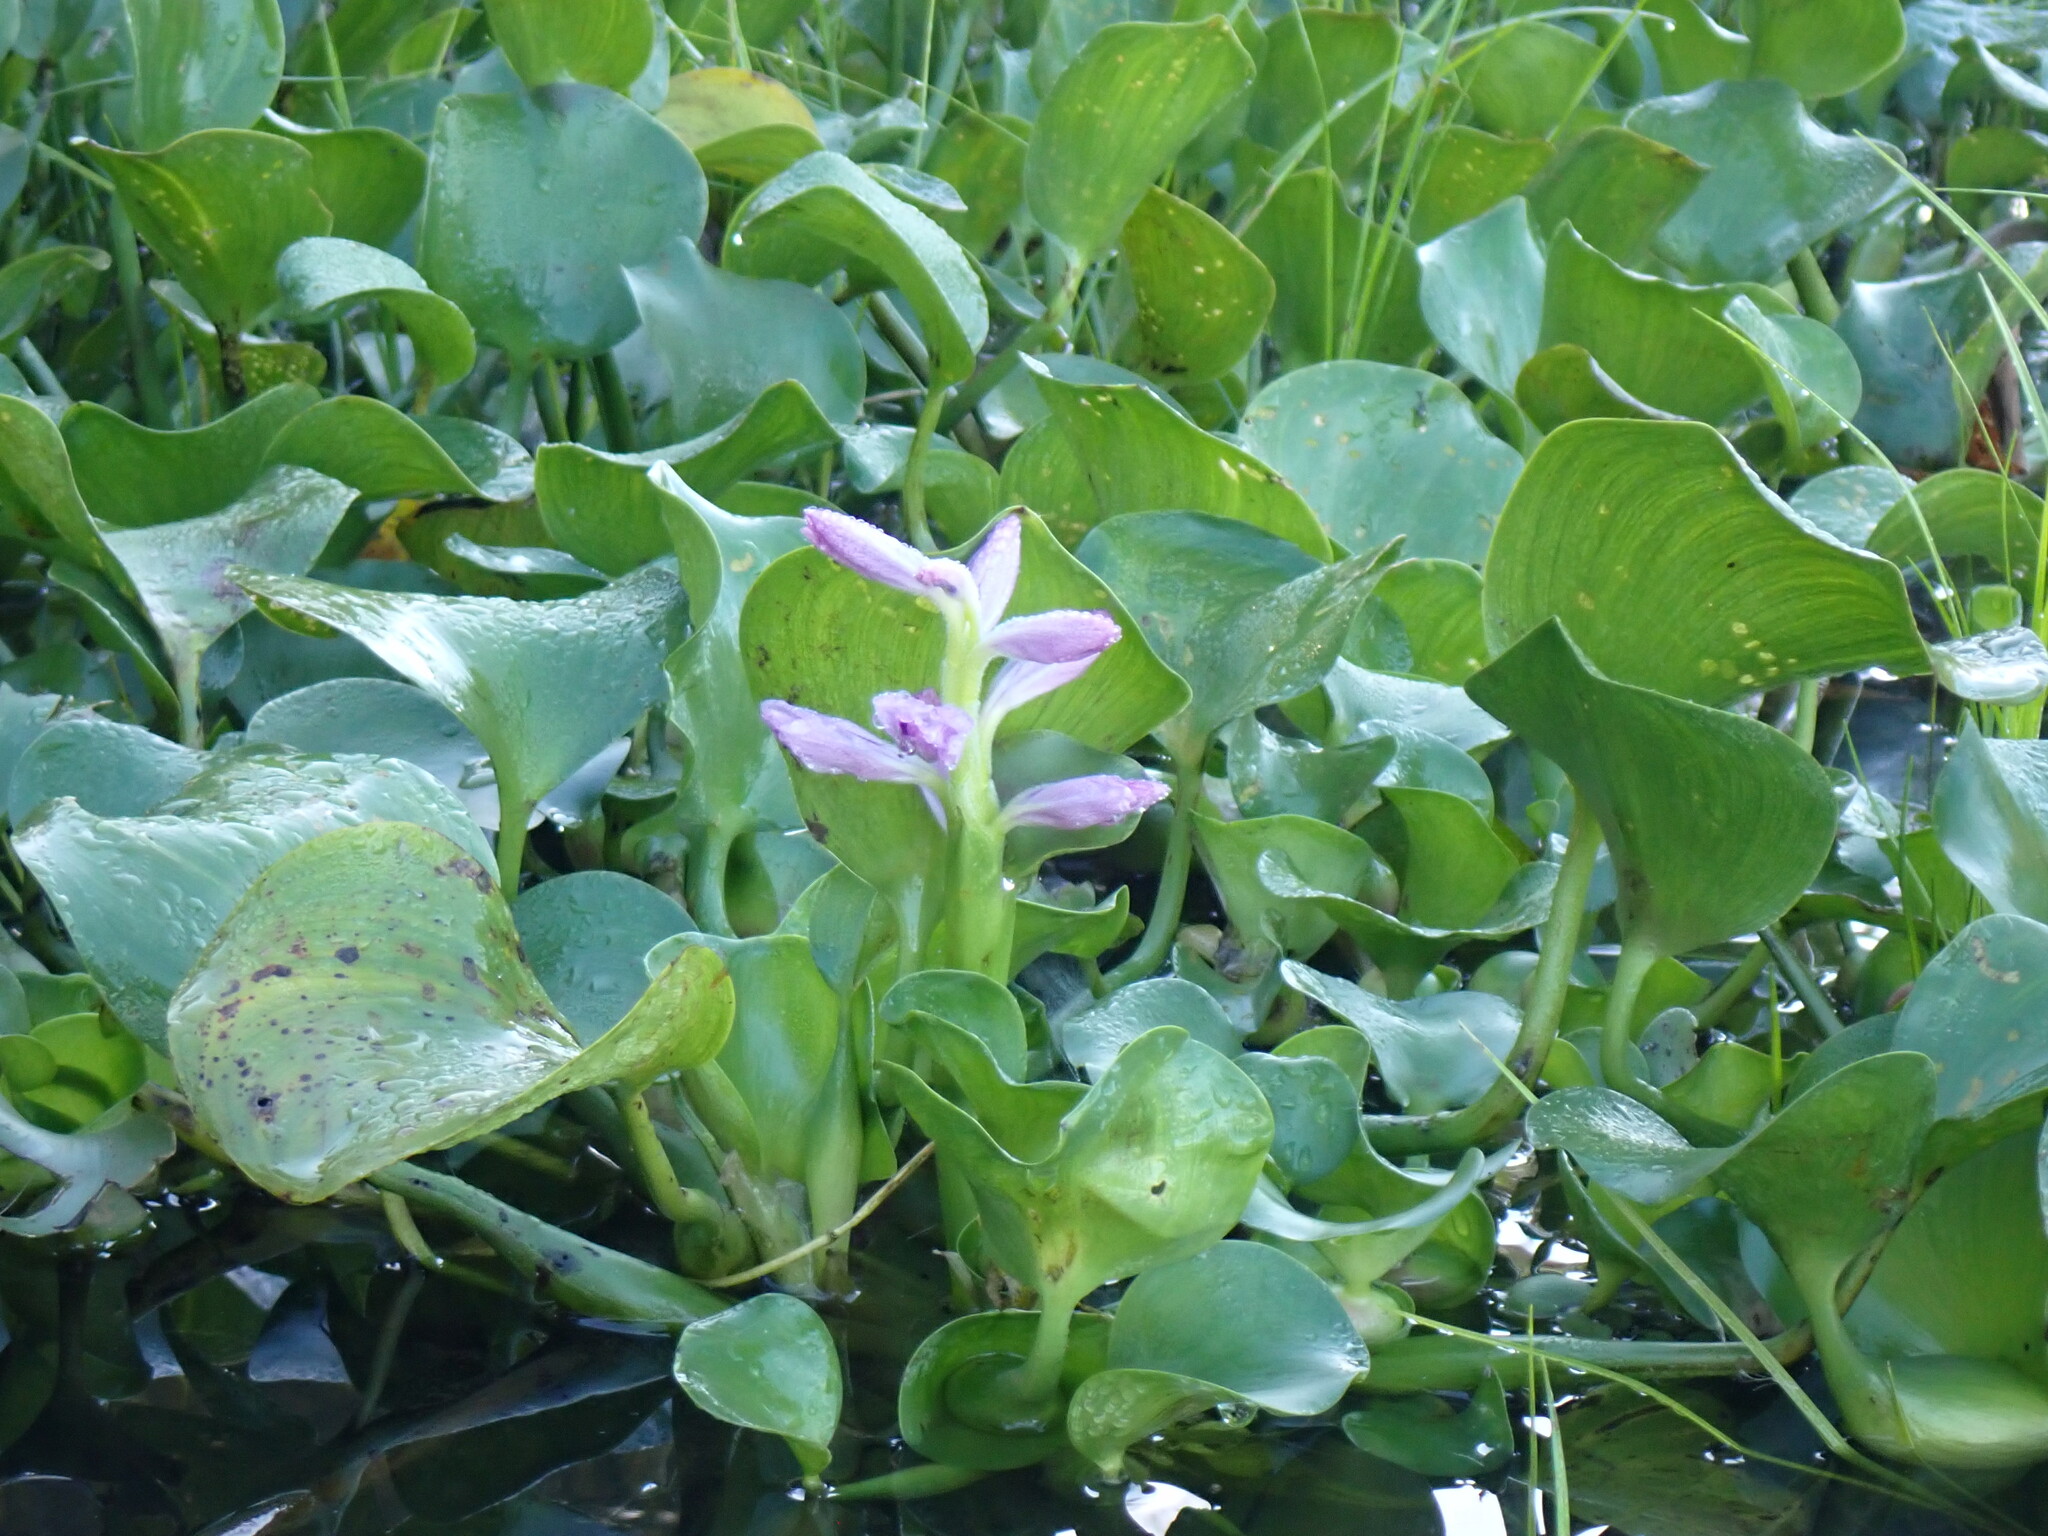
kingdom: Plantae
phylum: Tracheophyta
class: Liliopsida
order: Commelinales
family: Pontederiaceae
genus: Pontederia
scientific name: Pontederia crassipes
